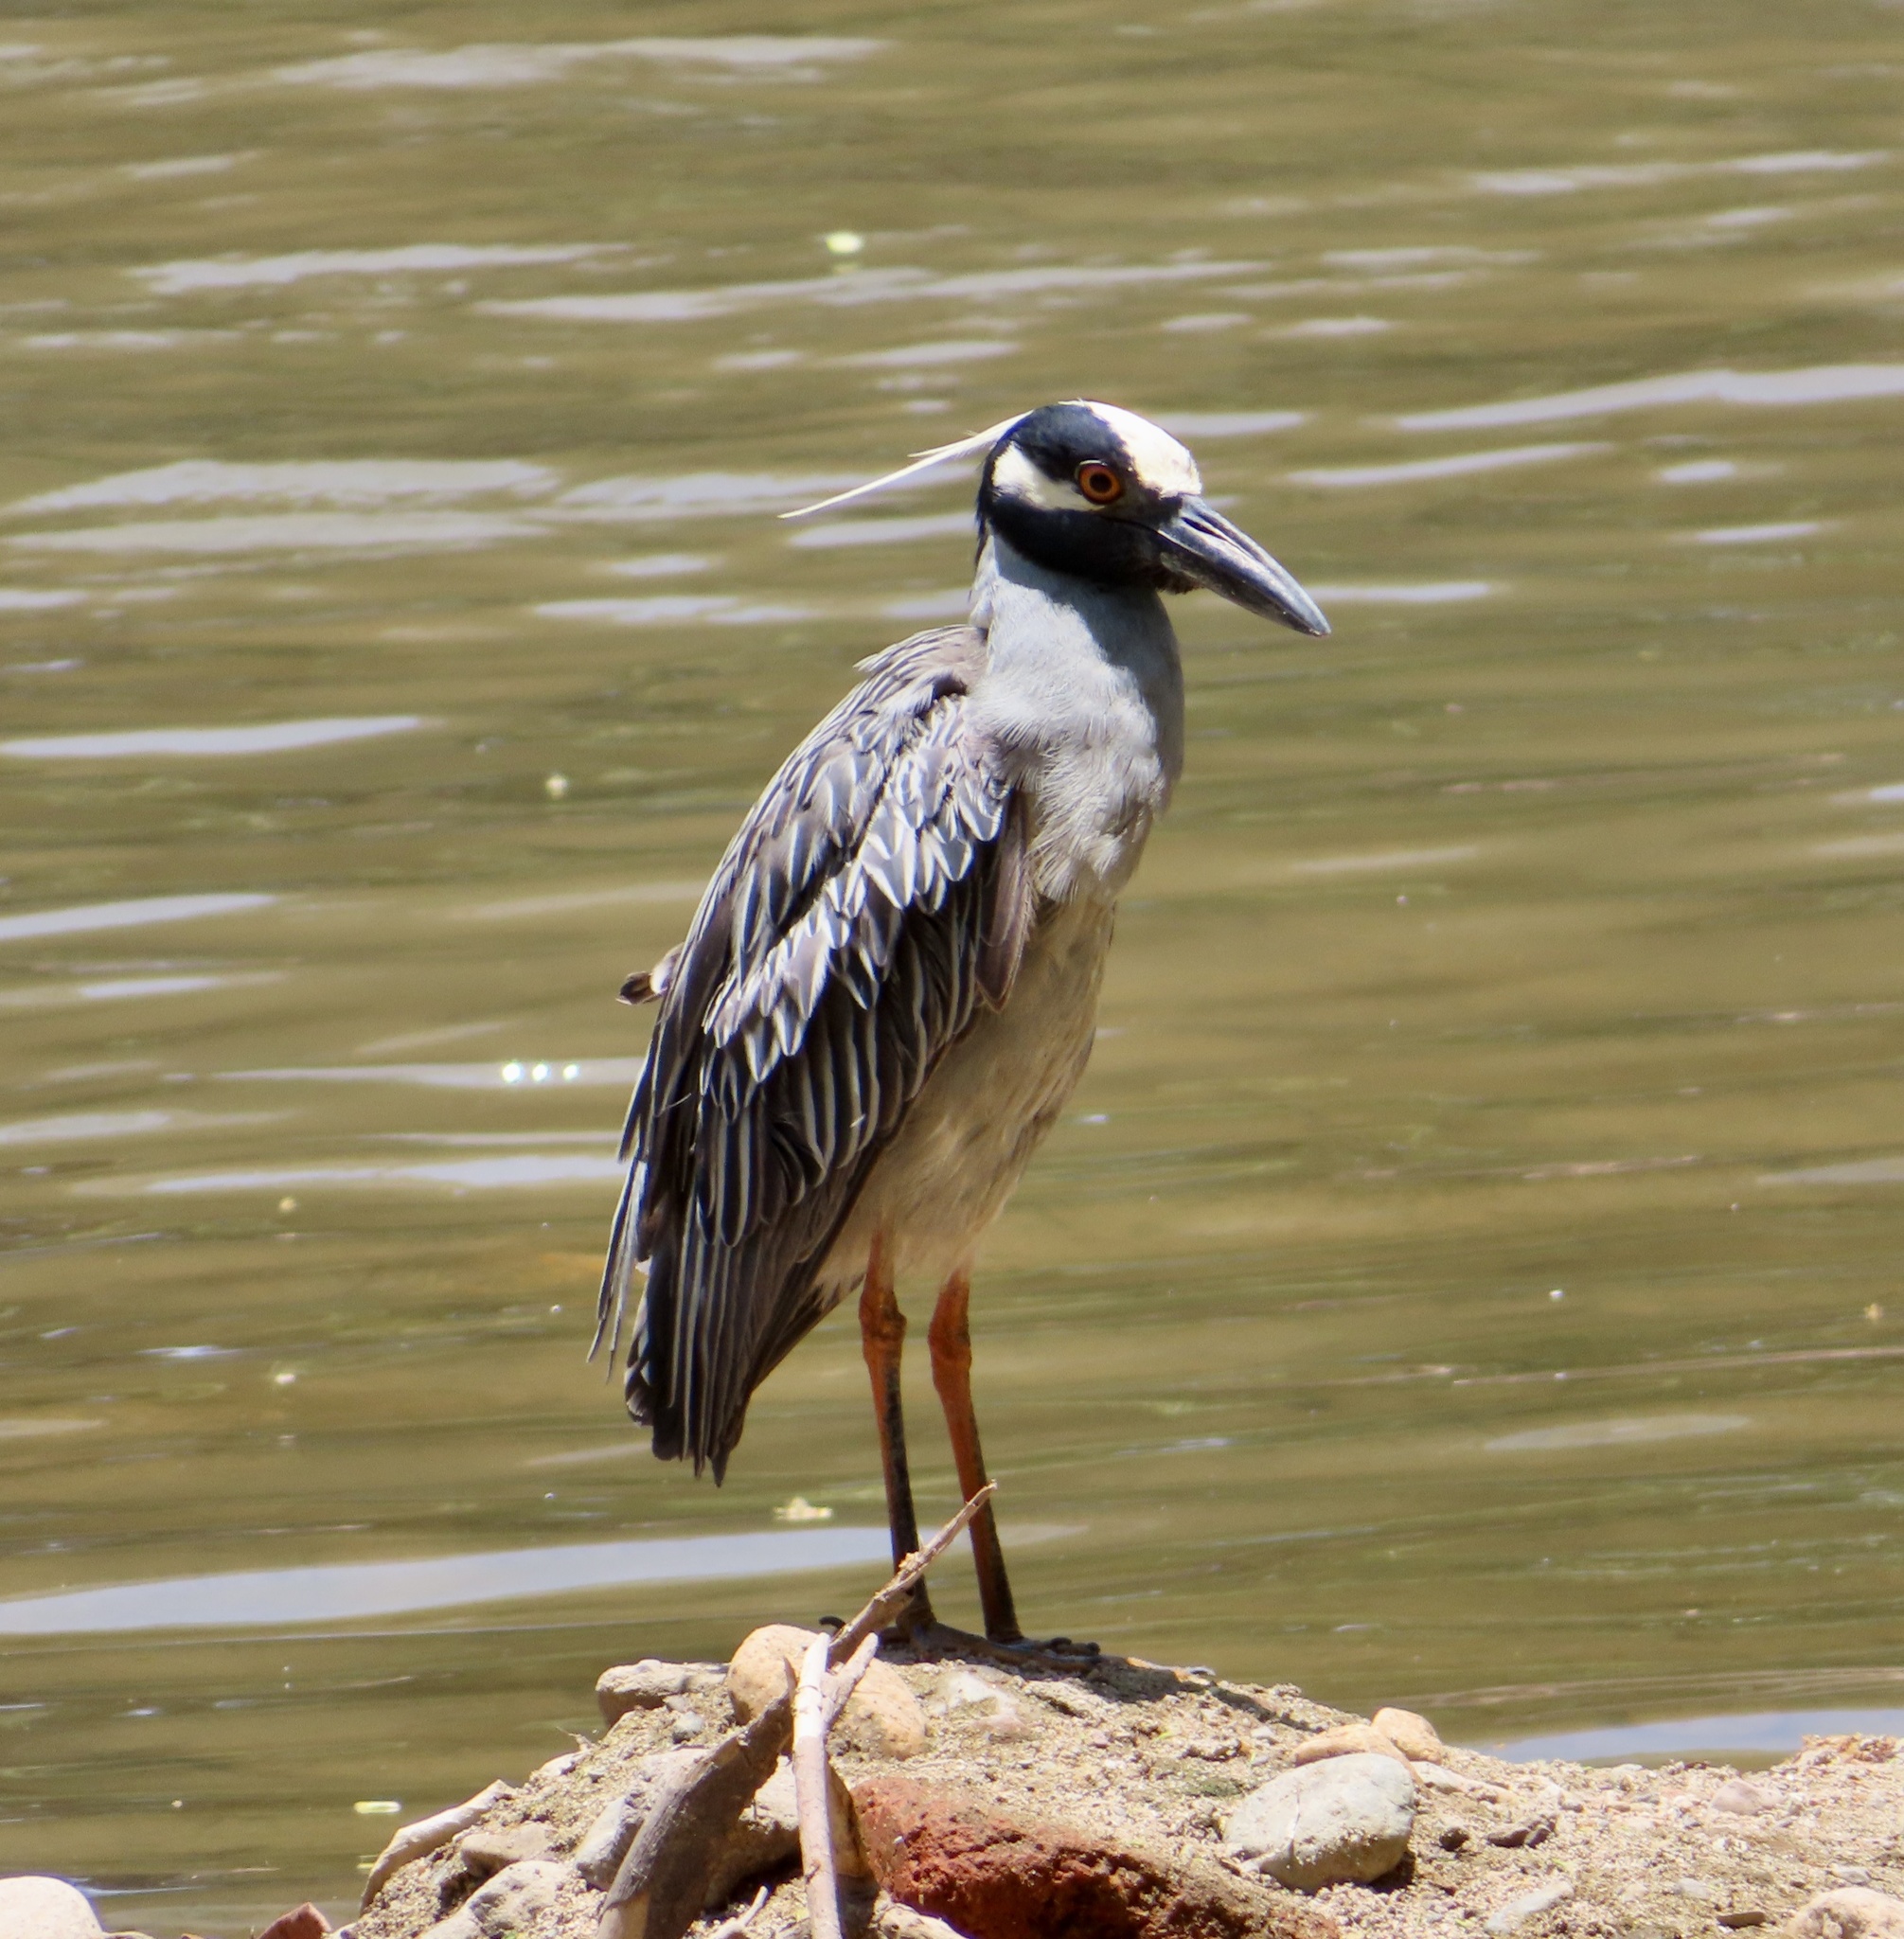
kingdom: Animalia
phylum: Chordata
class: Aves
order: Pelecaniformes
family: Ardeidae
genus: Nyctanassa
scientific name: Nyctanassa violacea
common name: Yellow-crowned night heron
